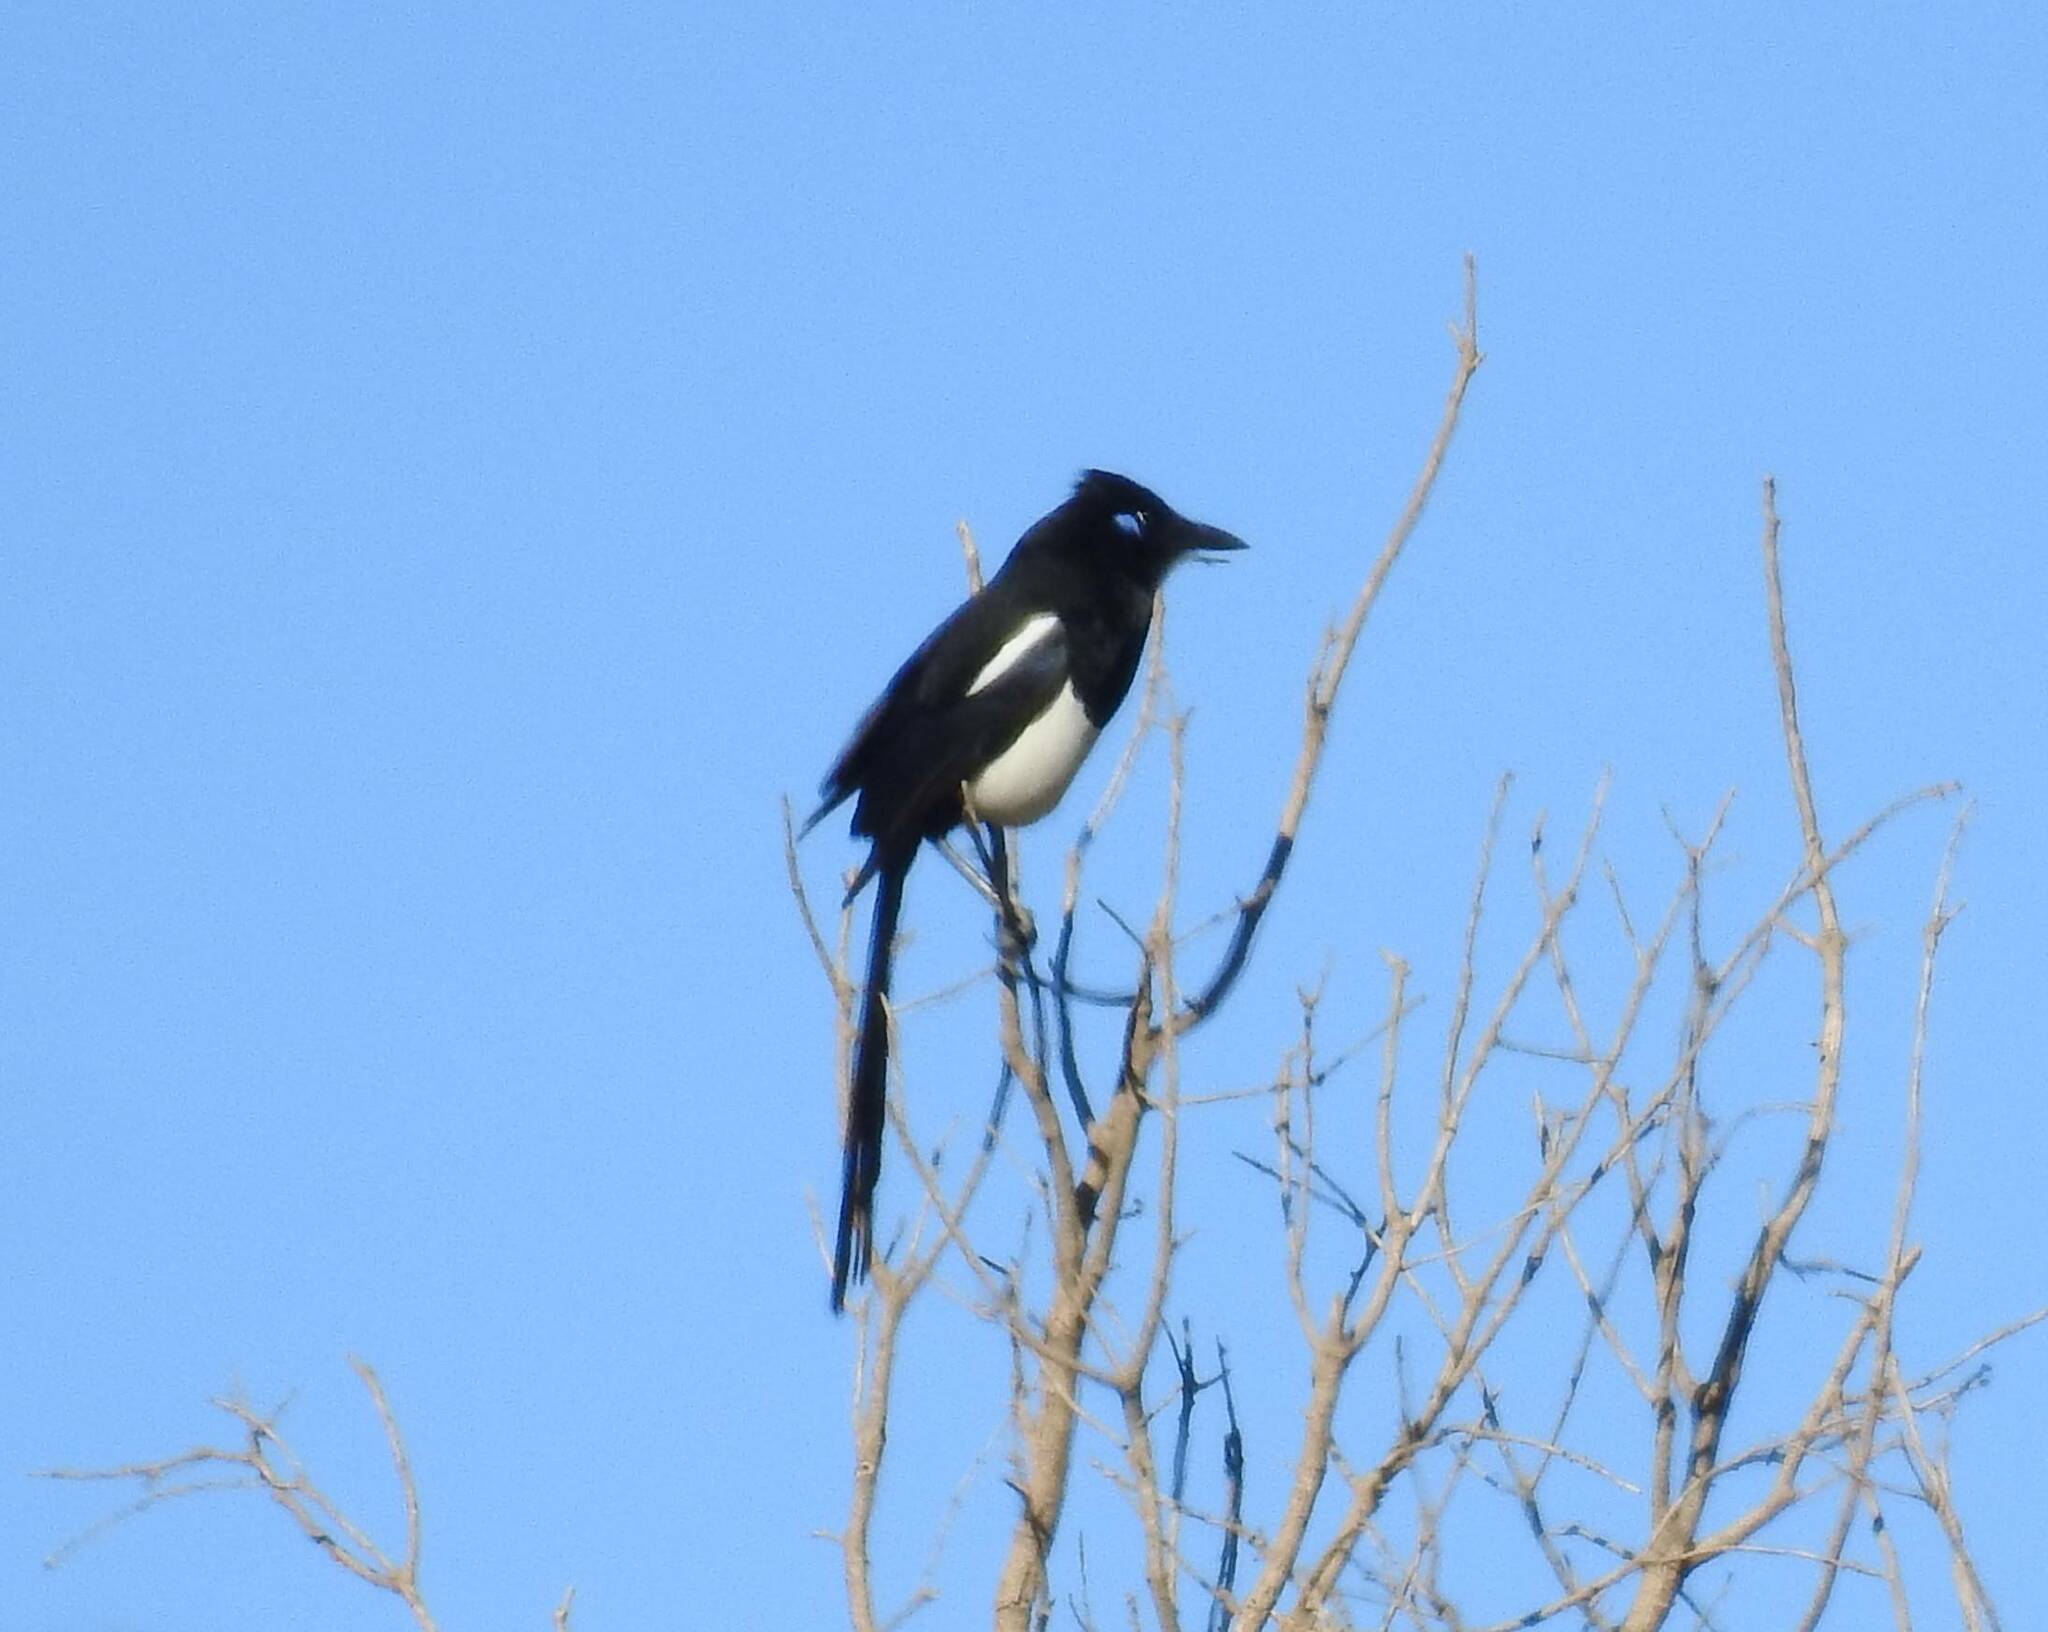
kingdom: Animalia
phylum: Chordata
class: Aves
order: Passeriformes
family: Corvidae
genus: Pica
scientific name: Pica mauritanica
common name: Maghreb magpie
